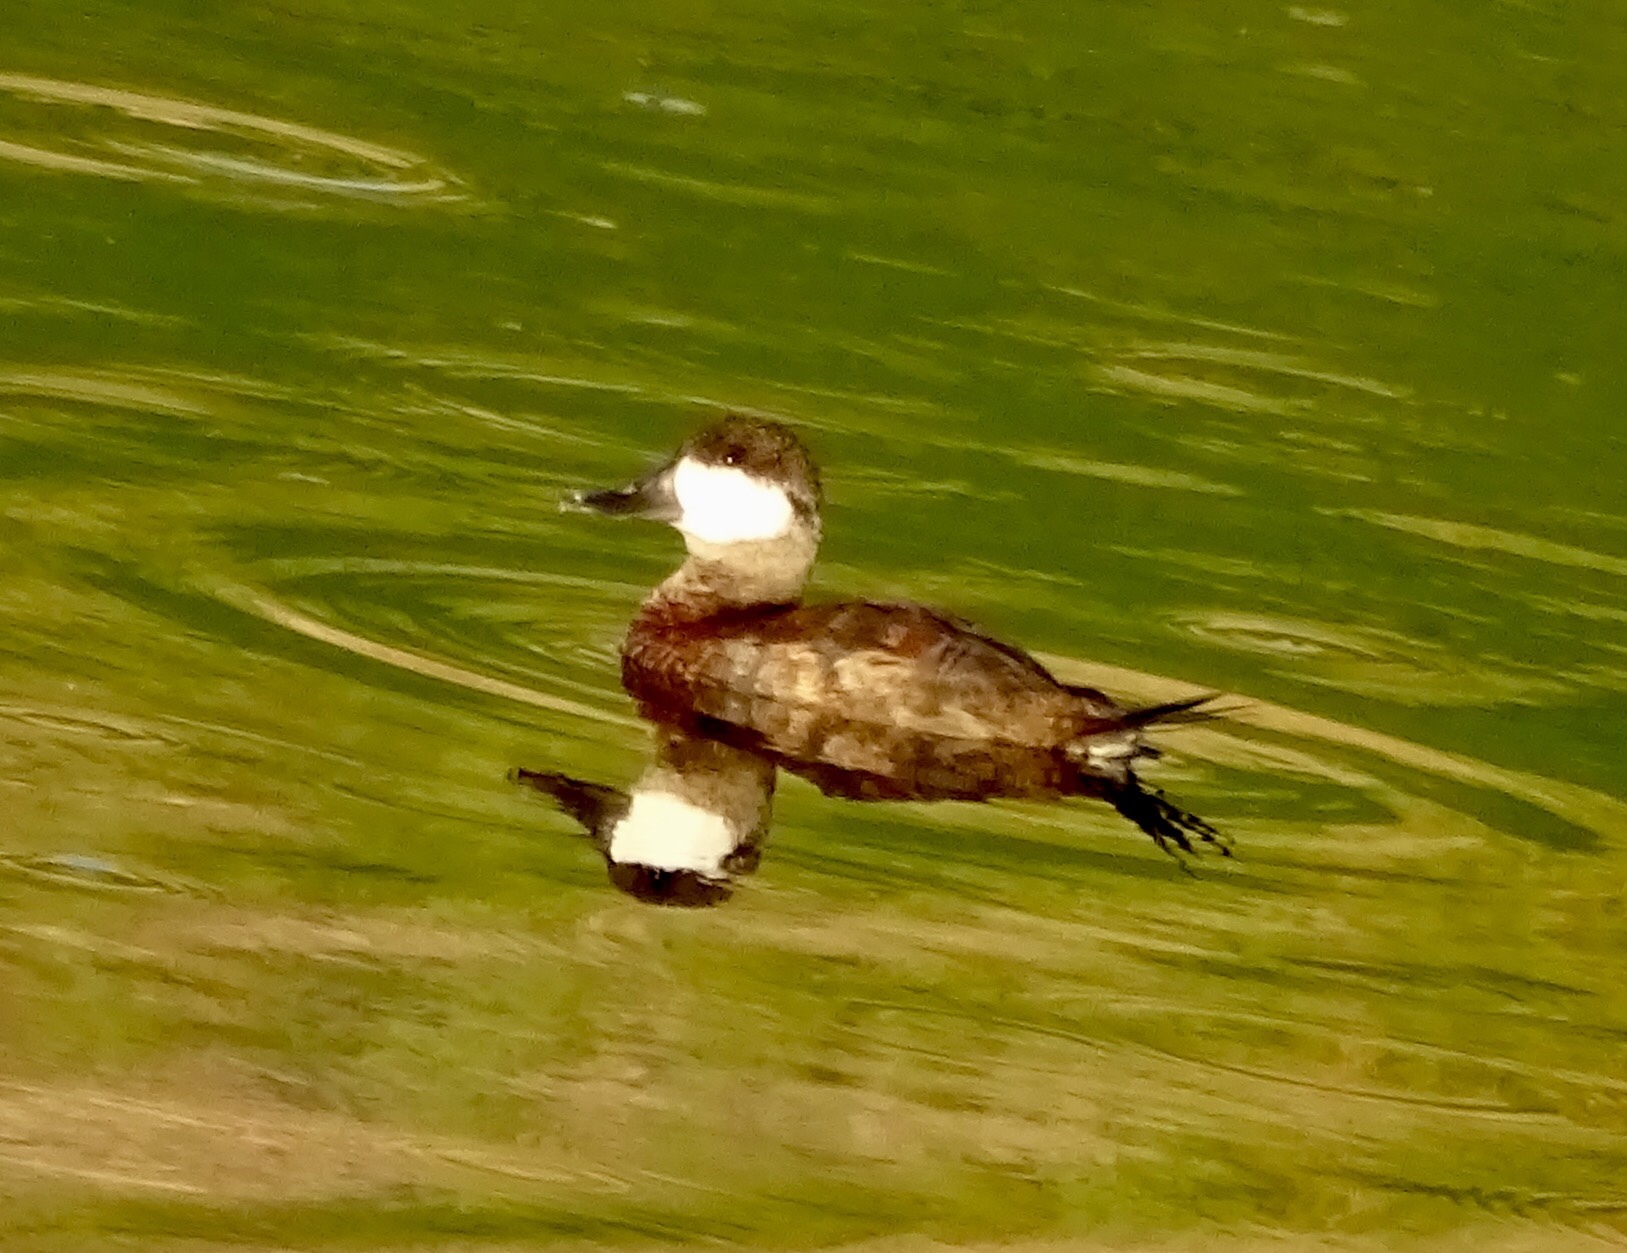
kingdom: Animalia
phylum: Chordata
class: Aves
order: Anseriformes
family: Anatidae
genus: Oxyura
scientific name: Oxyura jamaicensis
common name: Ruddy duck
